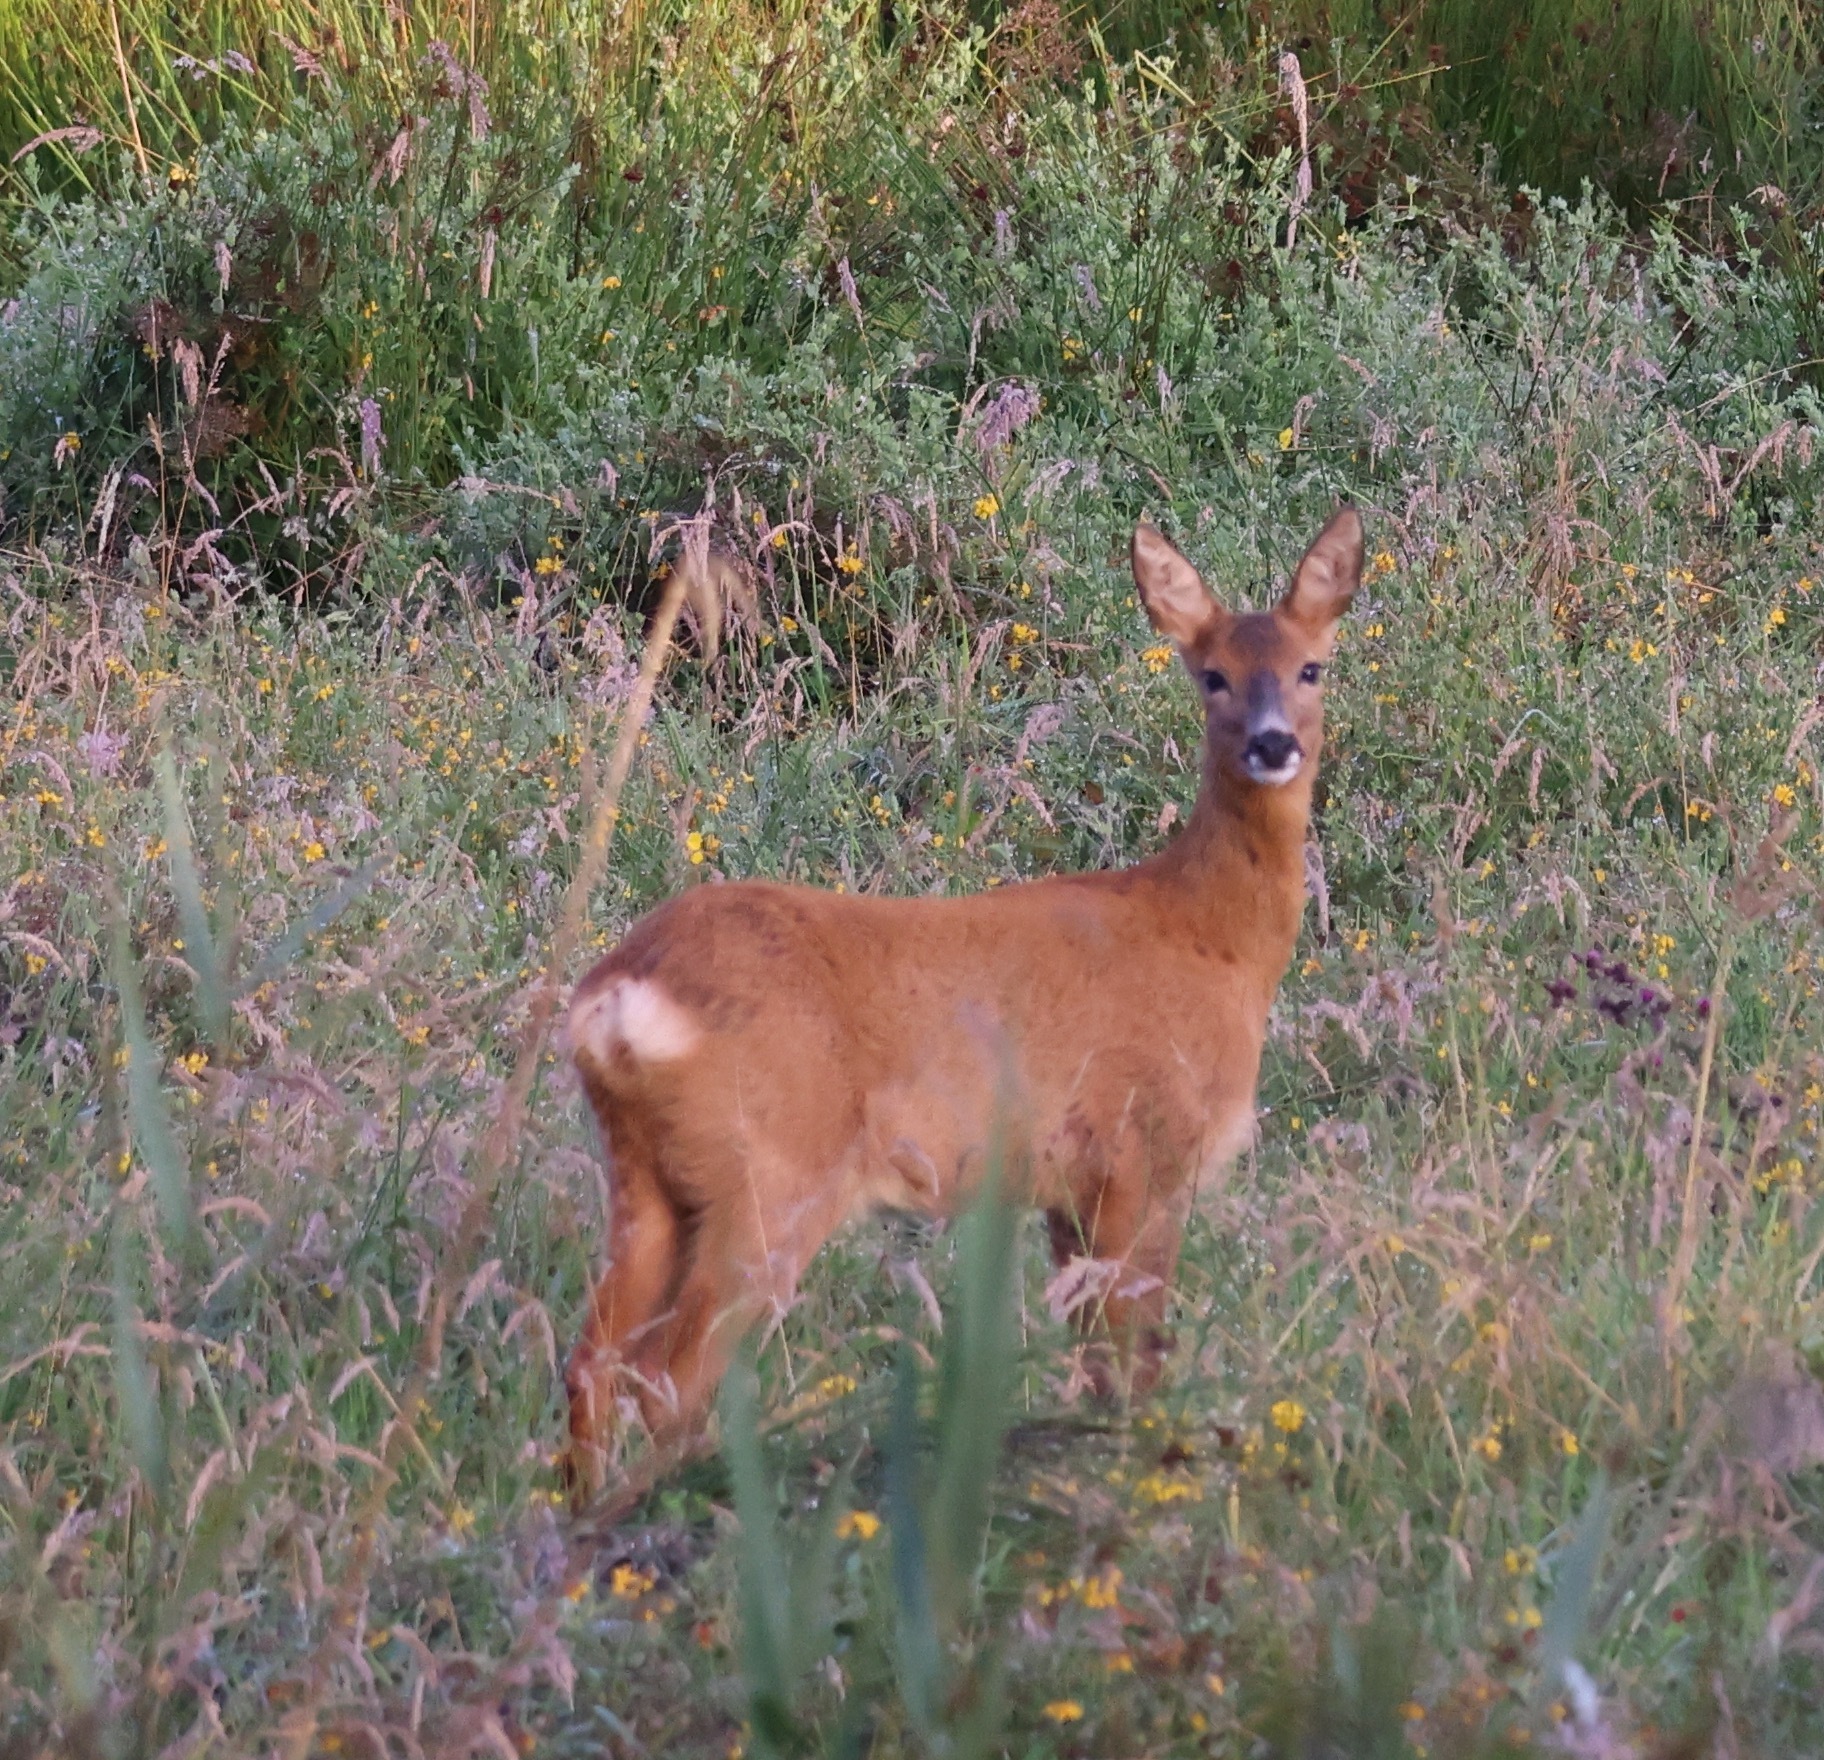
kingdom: Animalia
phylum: Chordata
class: Mammalia
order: Artiodactyla
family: Cervidae
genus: Capreolus
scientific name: Capreolus capreolus
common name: Western roe deer
